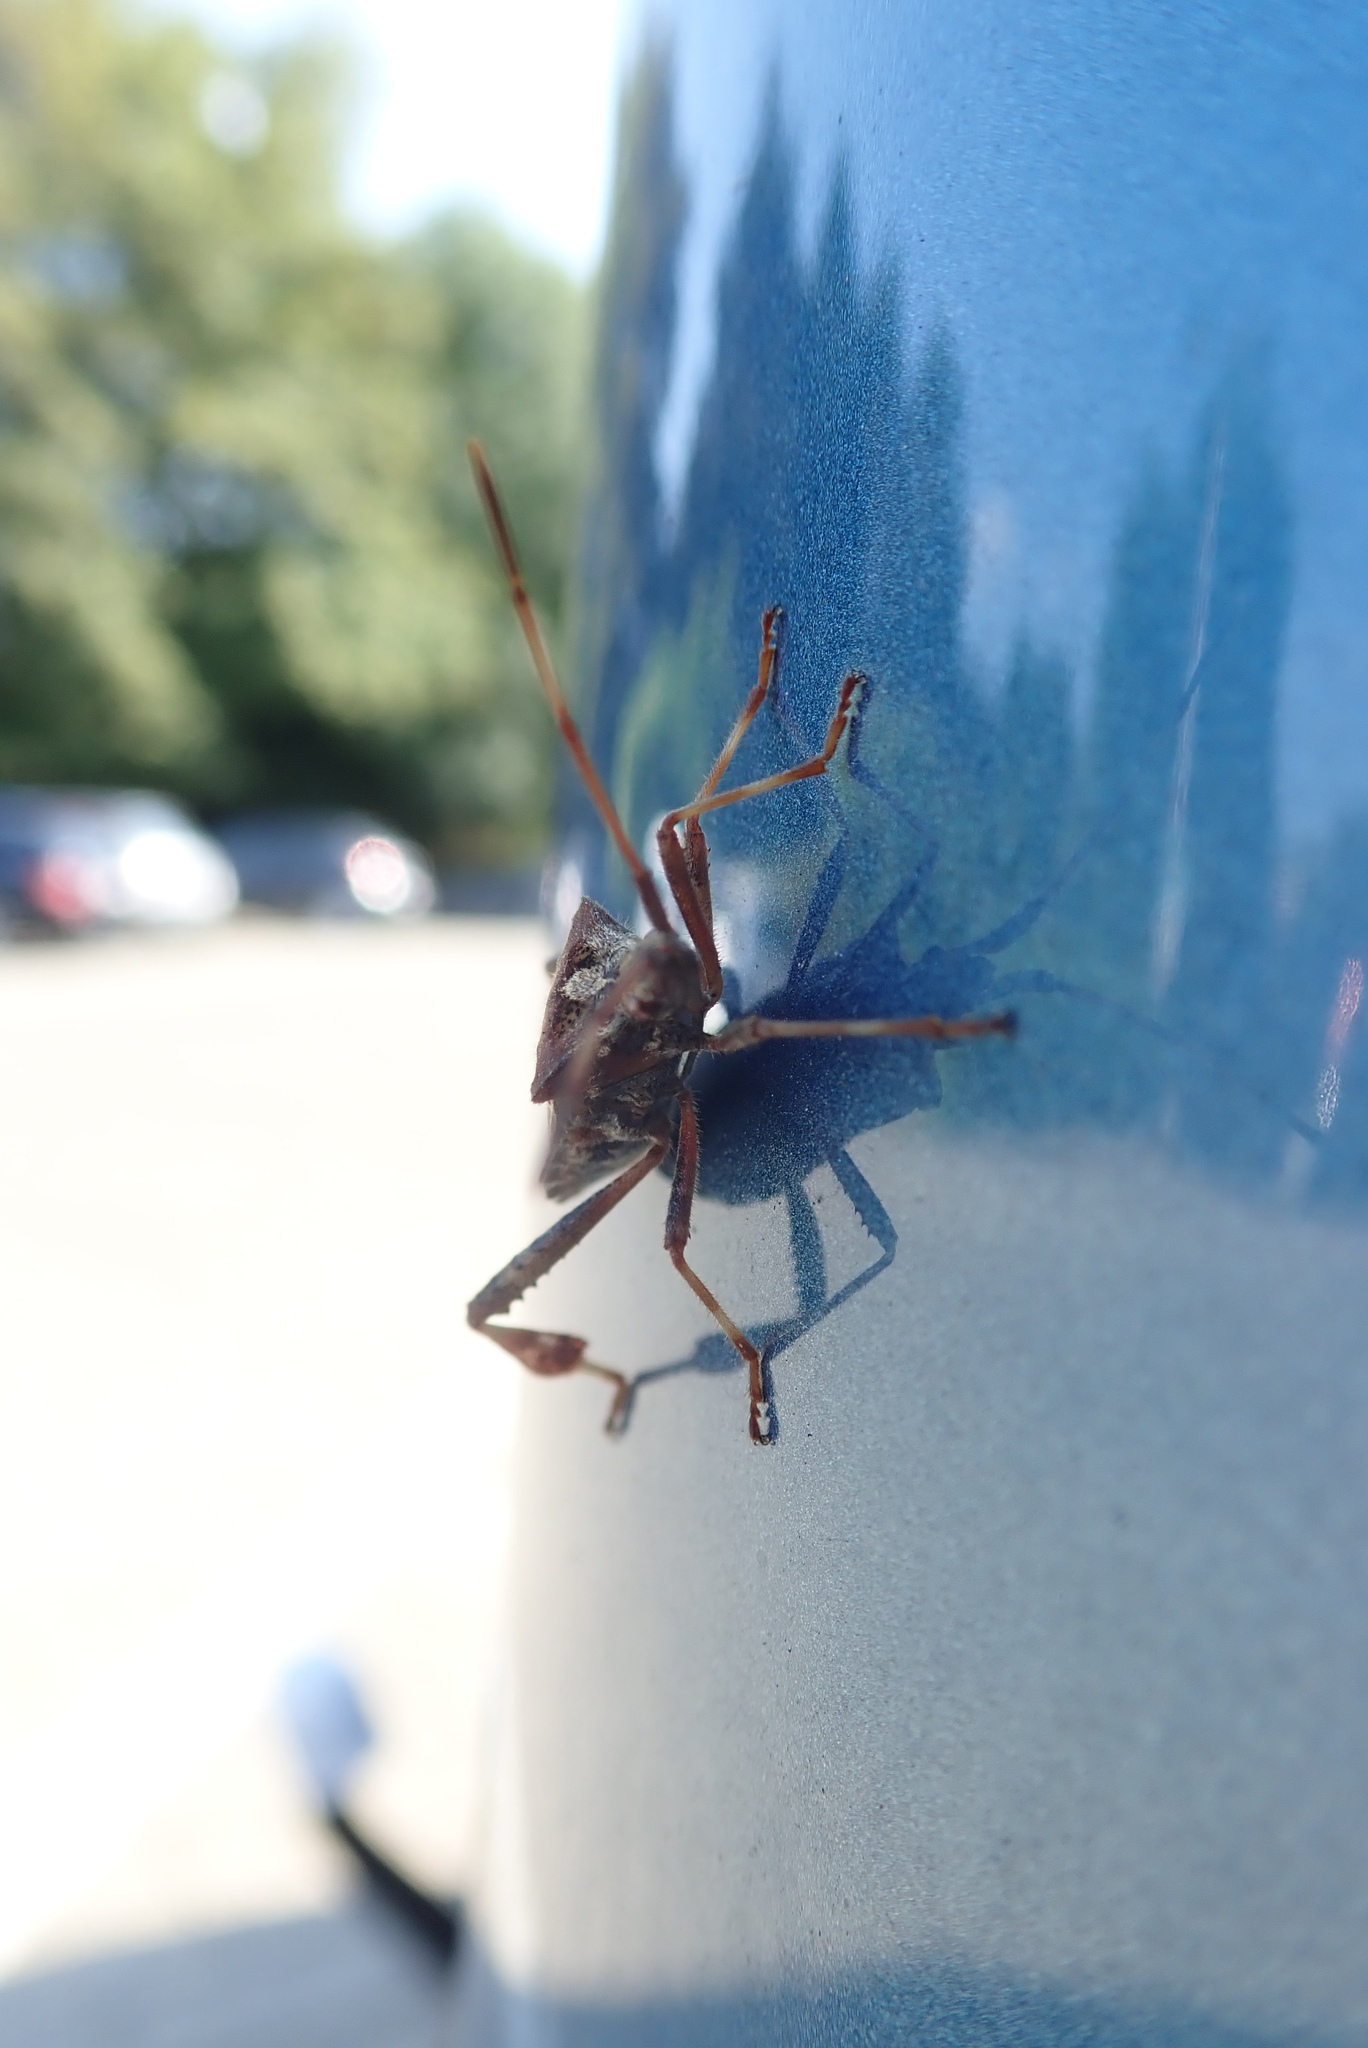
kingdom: Animalia
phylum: Arthropoda
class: Insecta
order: Hemiptera
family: Coreidae
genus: Leptoglossus
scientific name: Leptoglossus occidentalis
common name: Western conifer-seed bug
